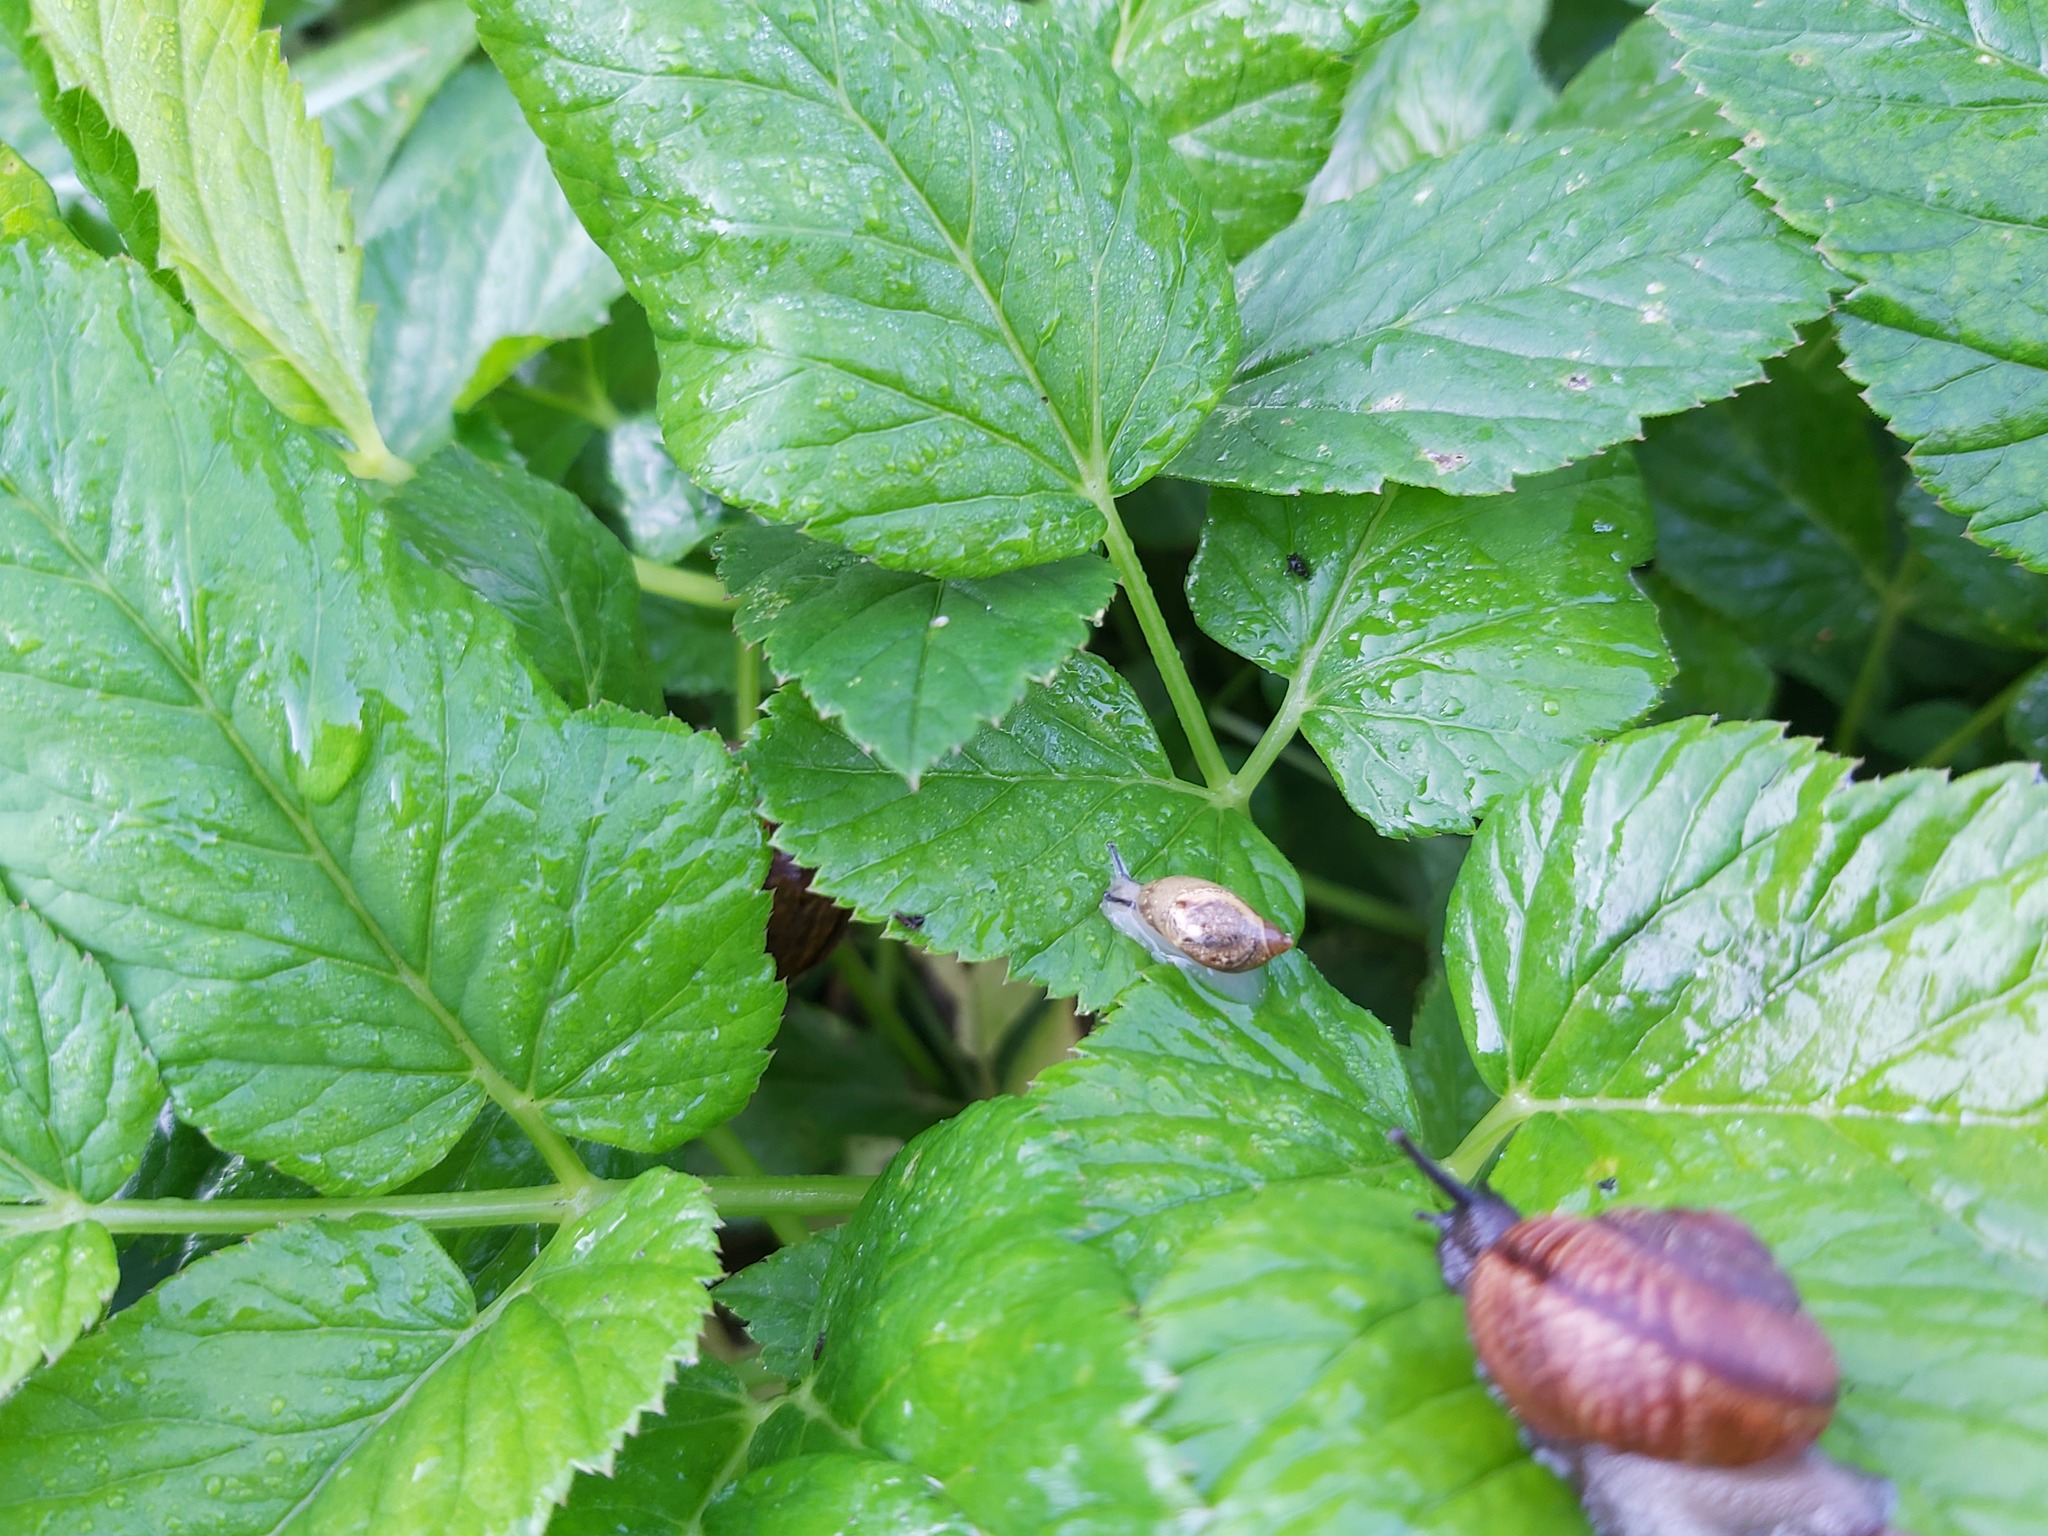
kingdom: Animalia
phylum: Mollusca
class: Gastropoda
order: Stylommatophora
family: Succineidae
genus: Succinea
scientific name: Succinea putris
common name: European ambersnail
